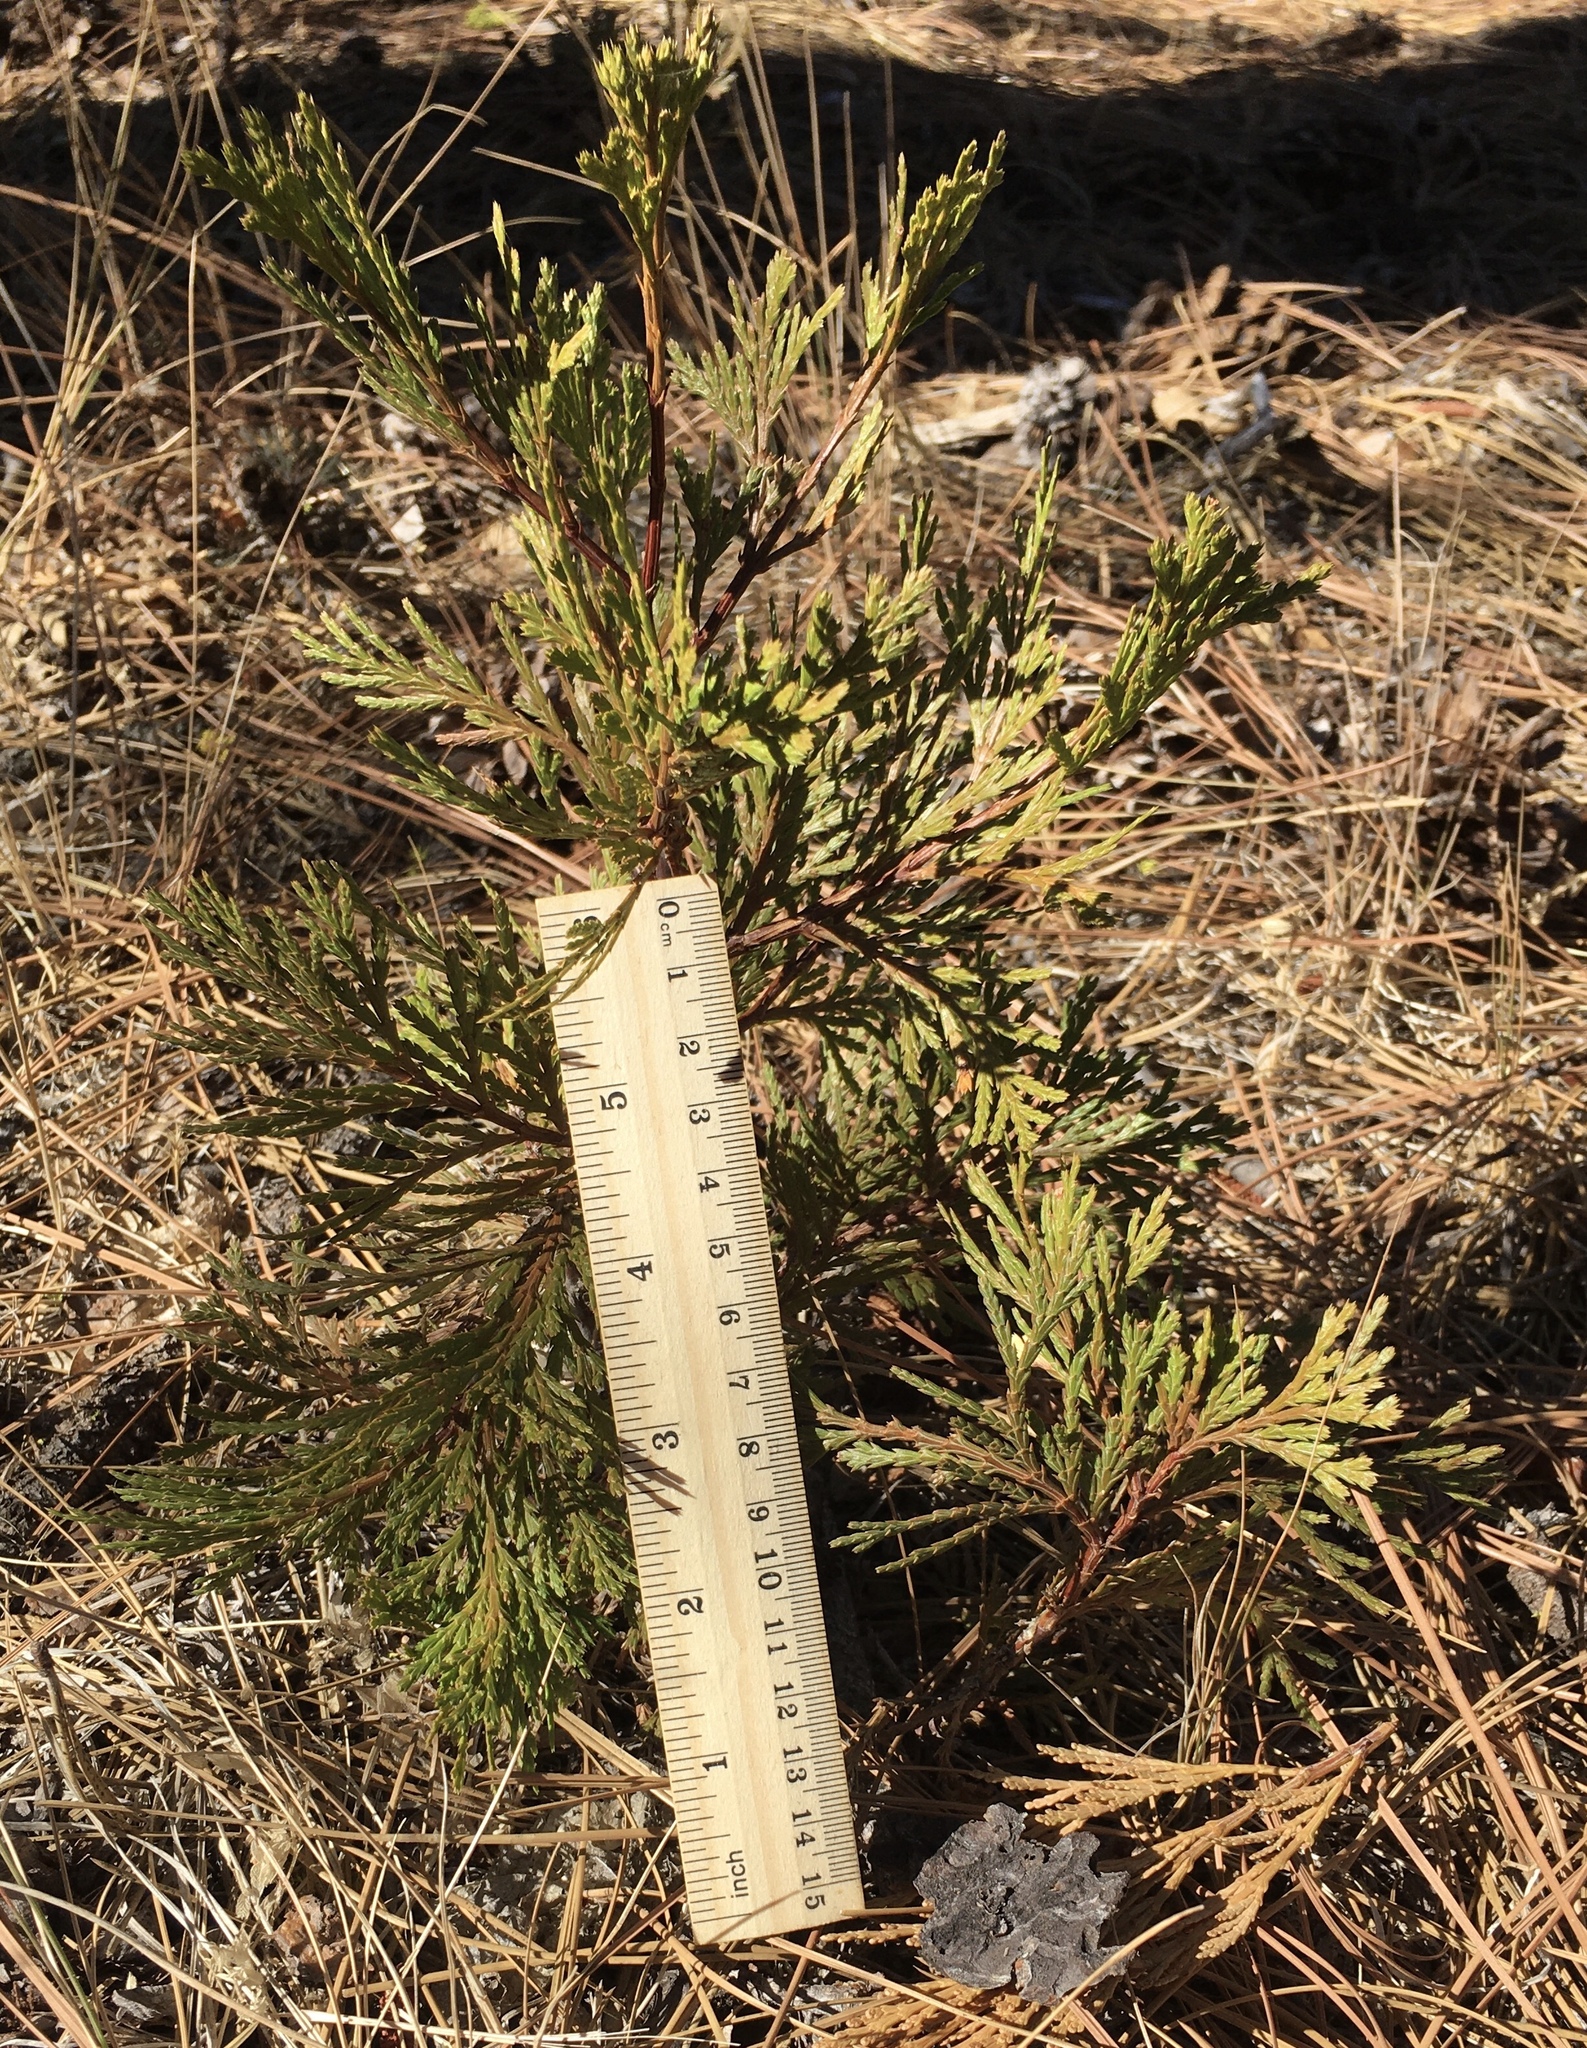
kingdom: Plantae
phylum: Tracheophyta
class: Pinopsida
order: Pinales
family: Cupressaceae
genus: Calocedrus
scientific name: Calocedrus decurrens
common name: Californian incense-cedar
